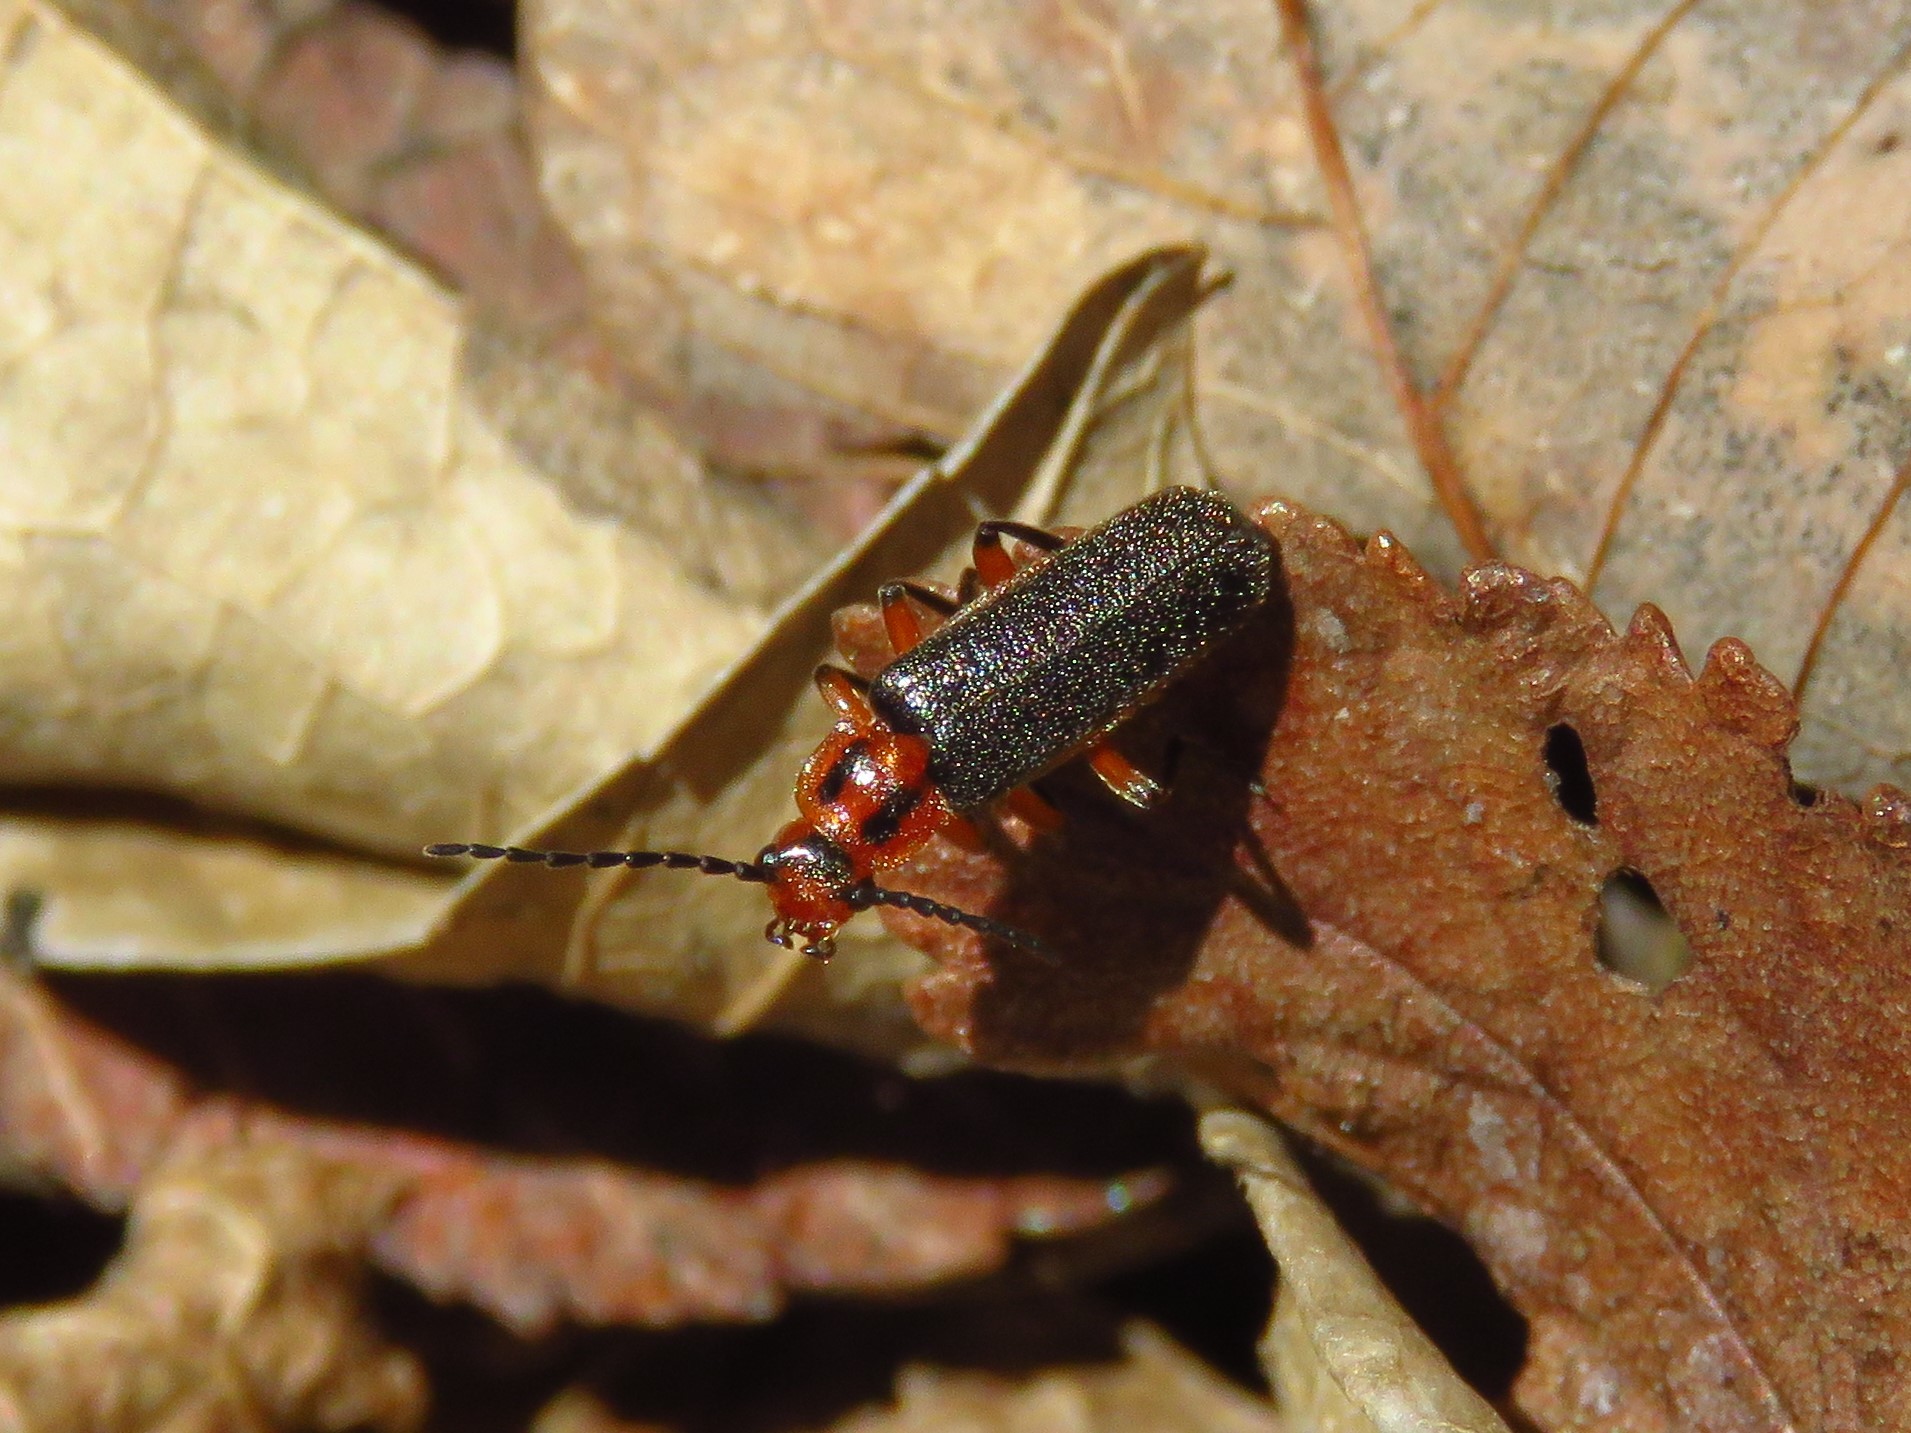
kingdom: Animalia
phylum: Arthropoda
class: Insecta
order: Coleoptera
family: Cantharidae
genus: Atalantycha
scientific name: Atalantycha bilineata
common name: Two-lined leatherwing
